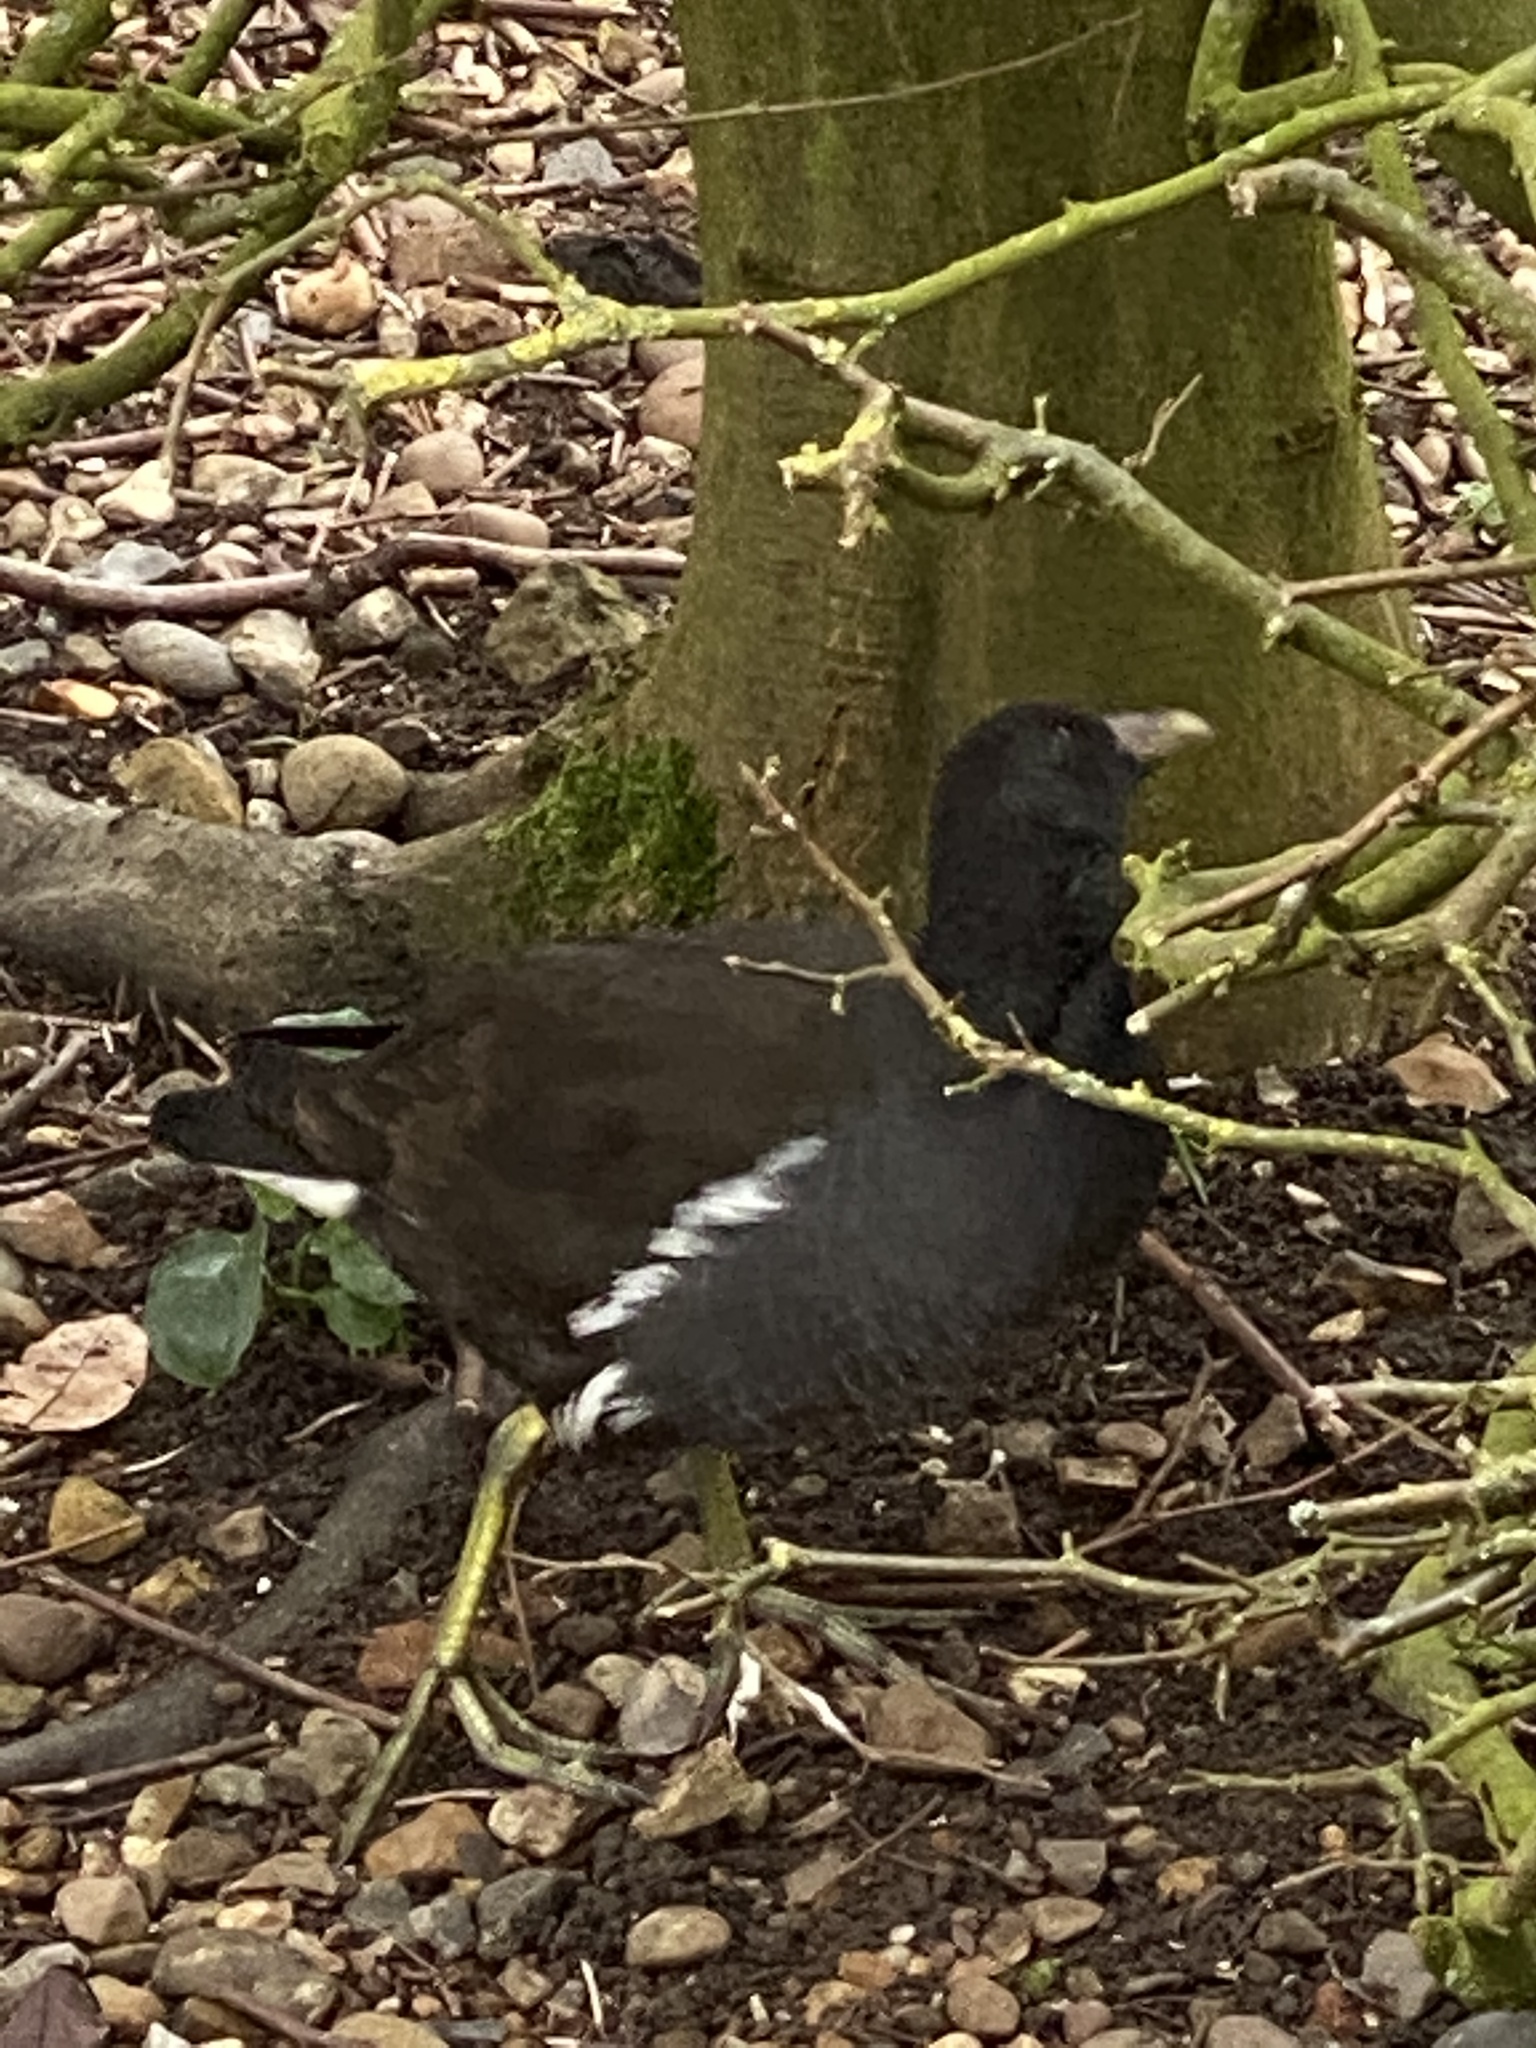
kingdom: Animalia
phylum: Chordata
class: Aves
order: Gruiformes
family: Rallidae
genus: Gallinula
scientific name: Gallinula chloropus
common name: Common moorhen
